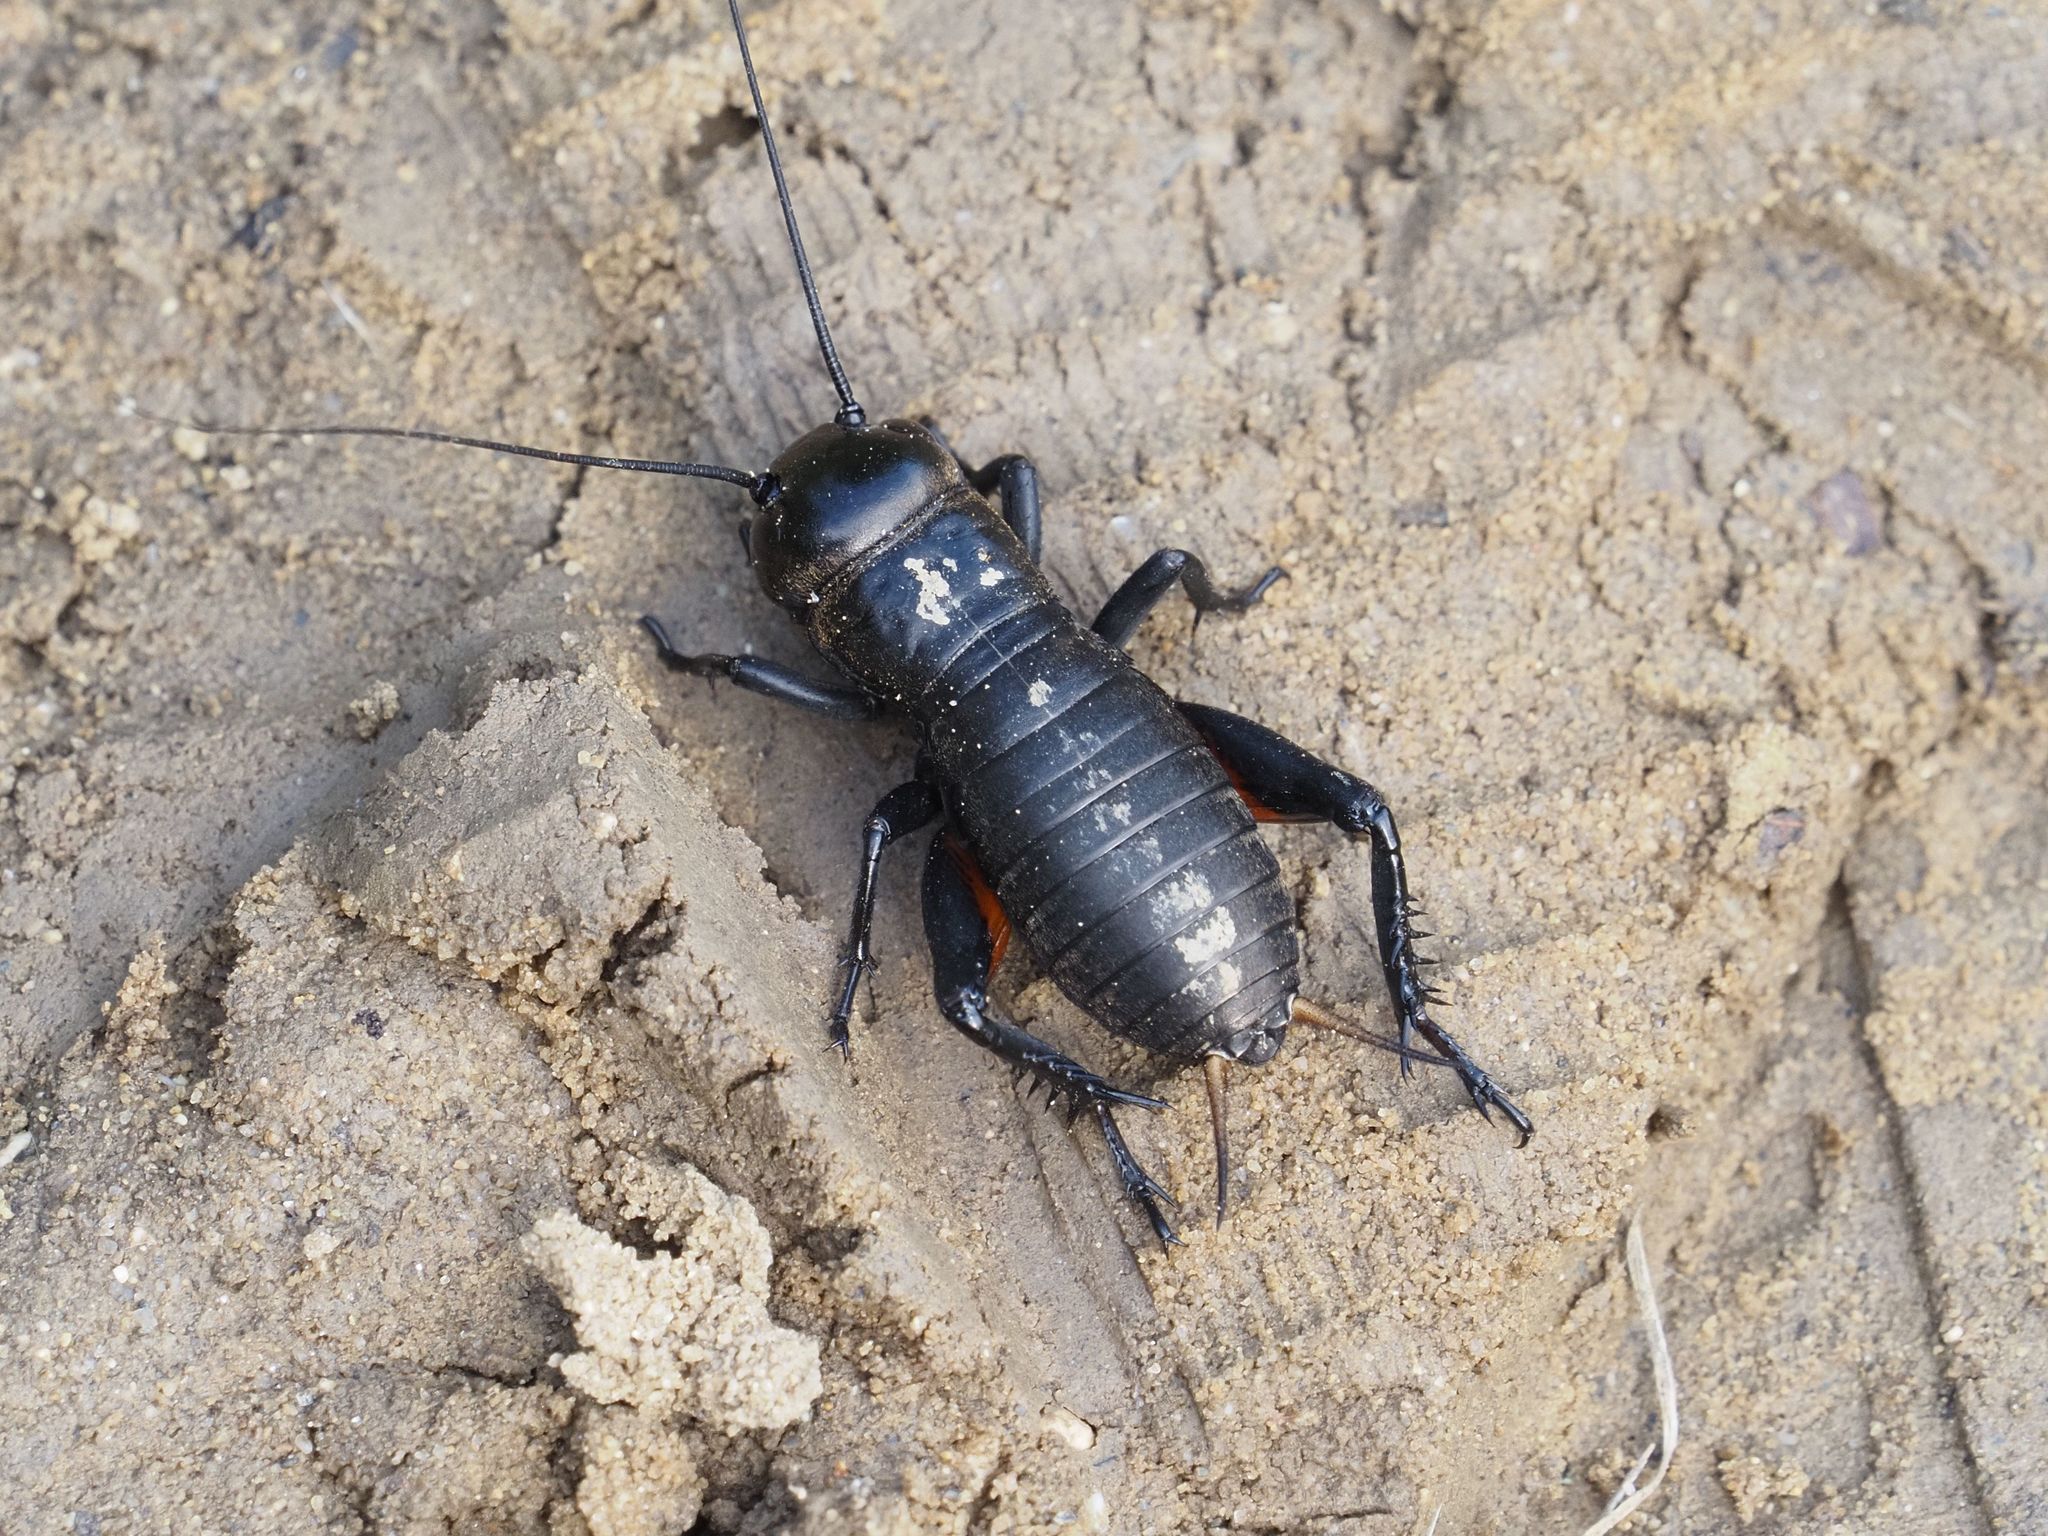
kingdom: Animalia
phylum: Arthropoda
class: Insecta
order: Orthoptera
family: Gryllidae
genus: Gryllus
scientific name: Gryllus campestris
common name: Field cricket
